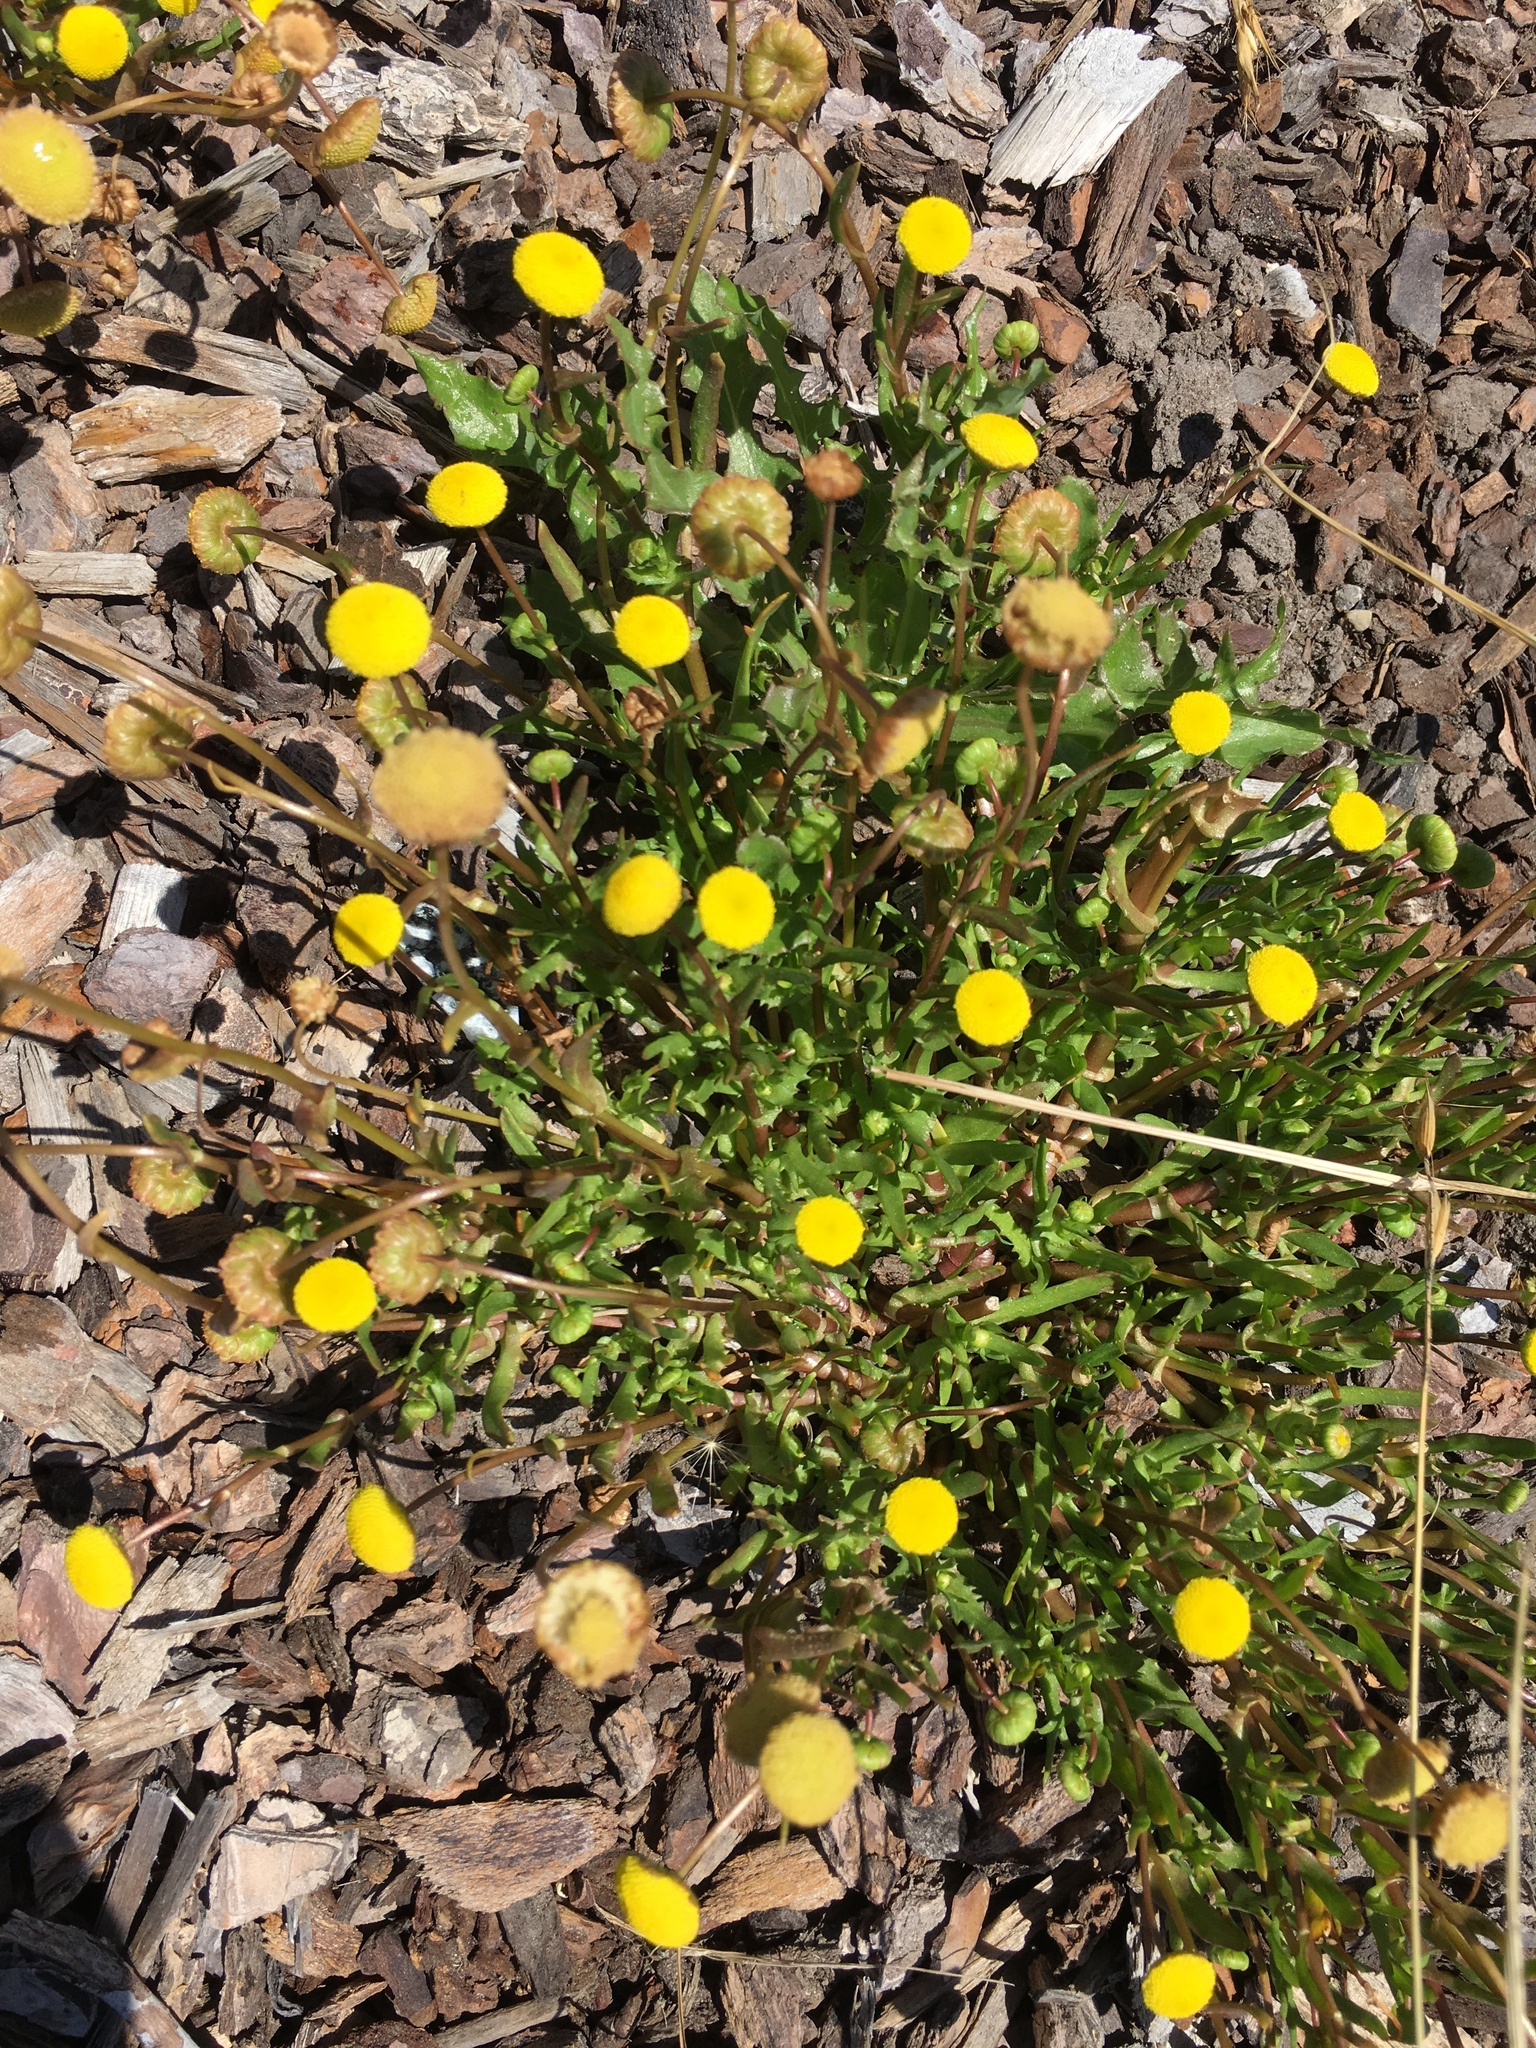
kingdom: Plantae
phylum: Tracheophyta
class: Magnoliopsida
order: Asterales
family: Asteraceae
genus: Cotula
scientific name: Cotula coronopifolia
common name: Buttonweed
